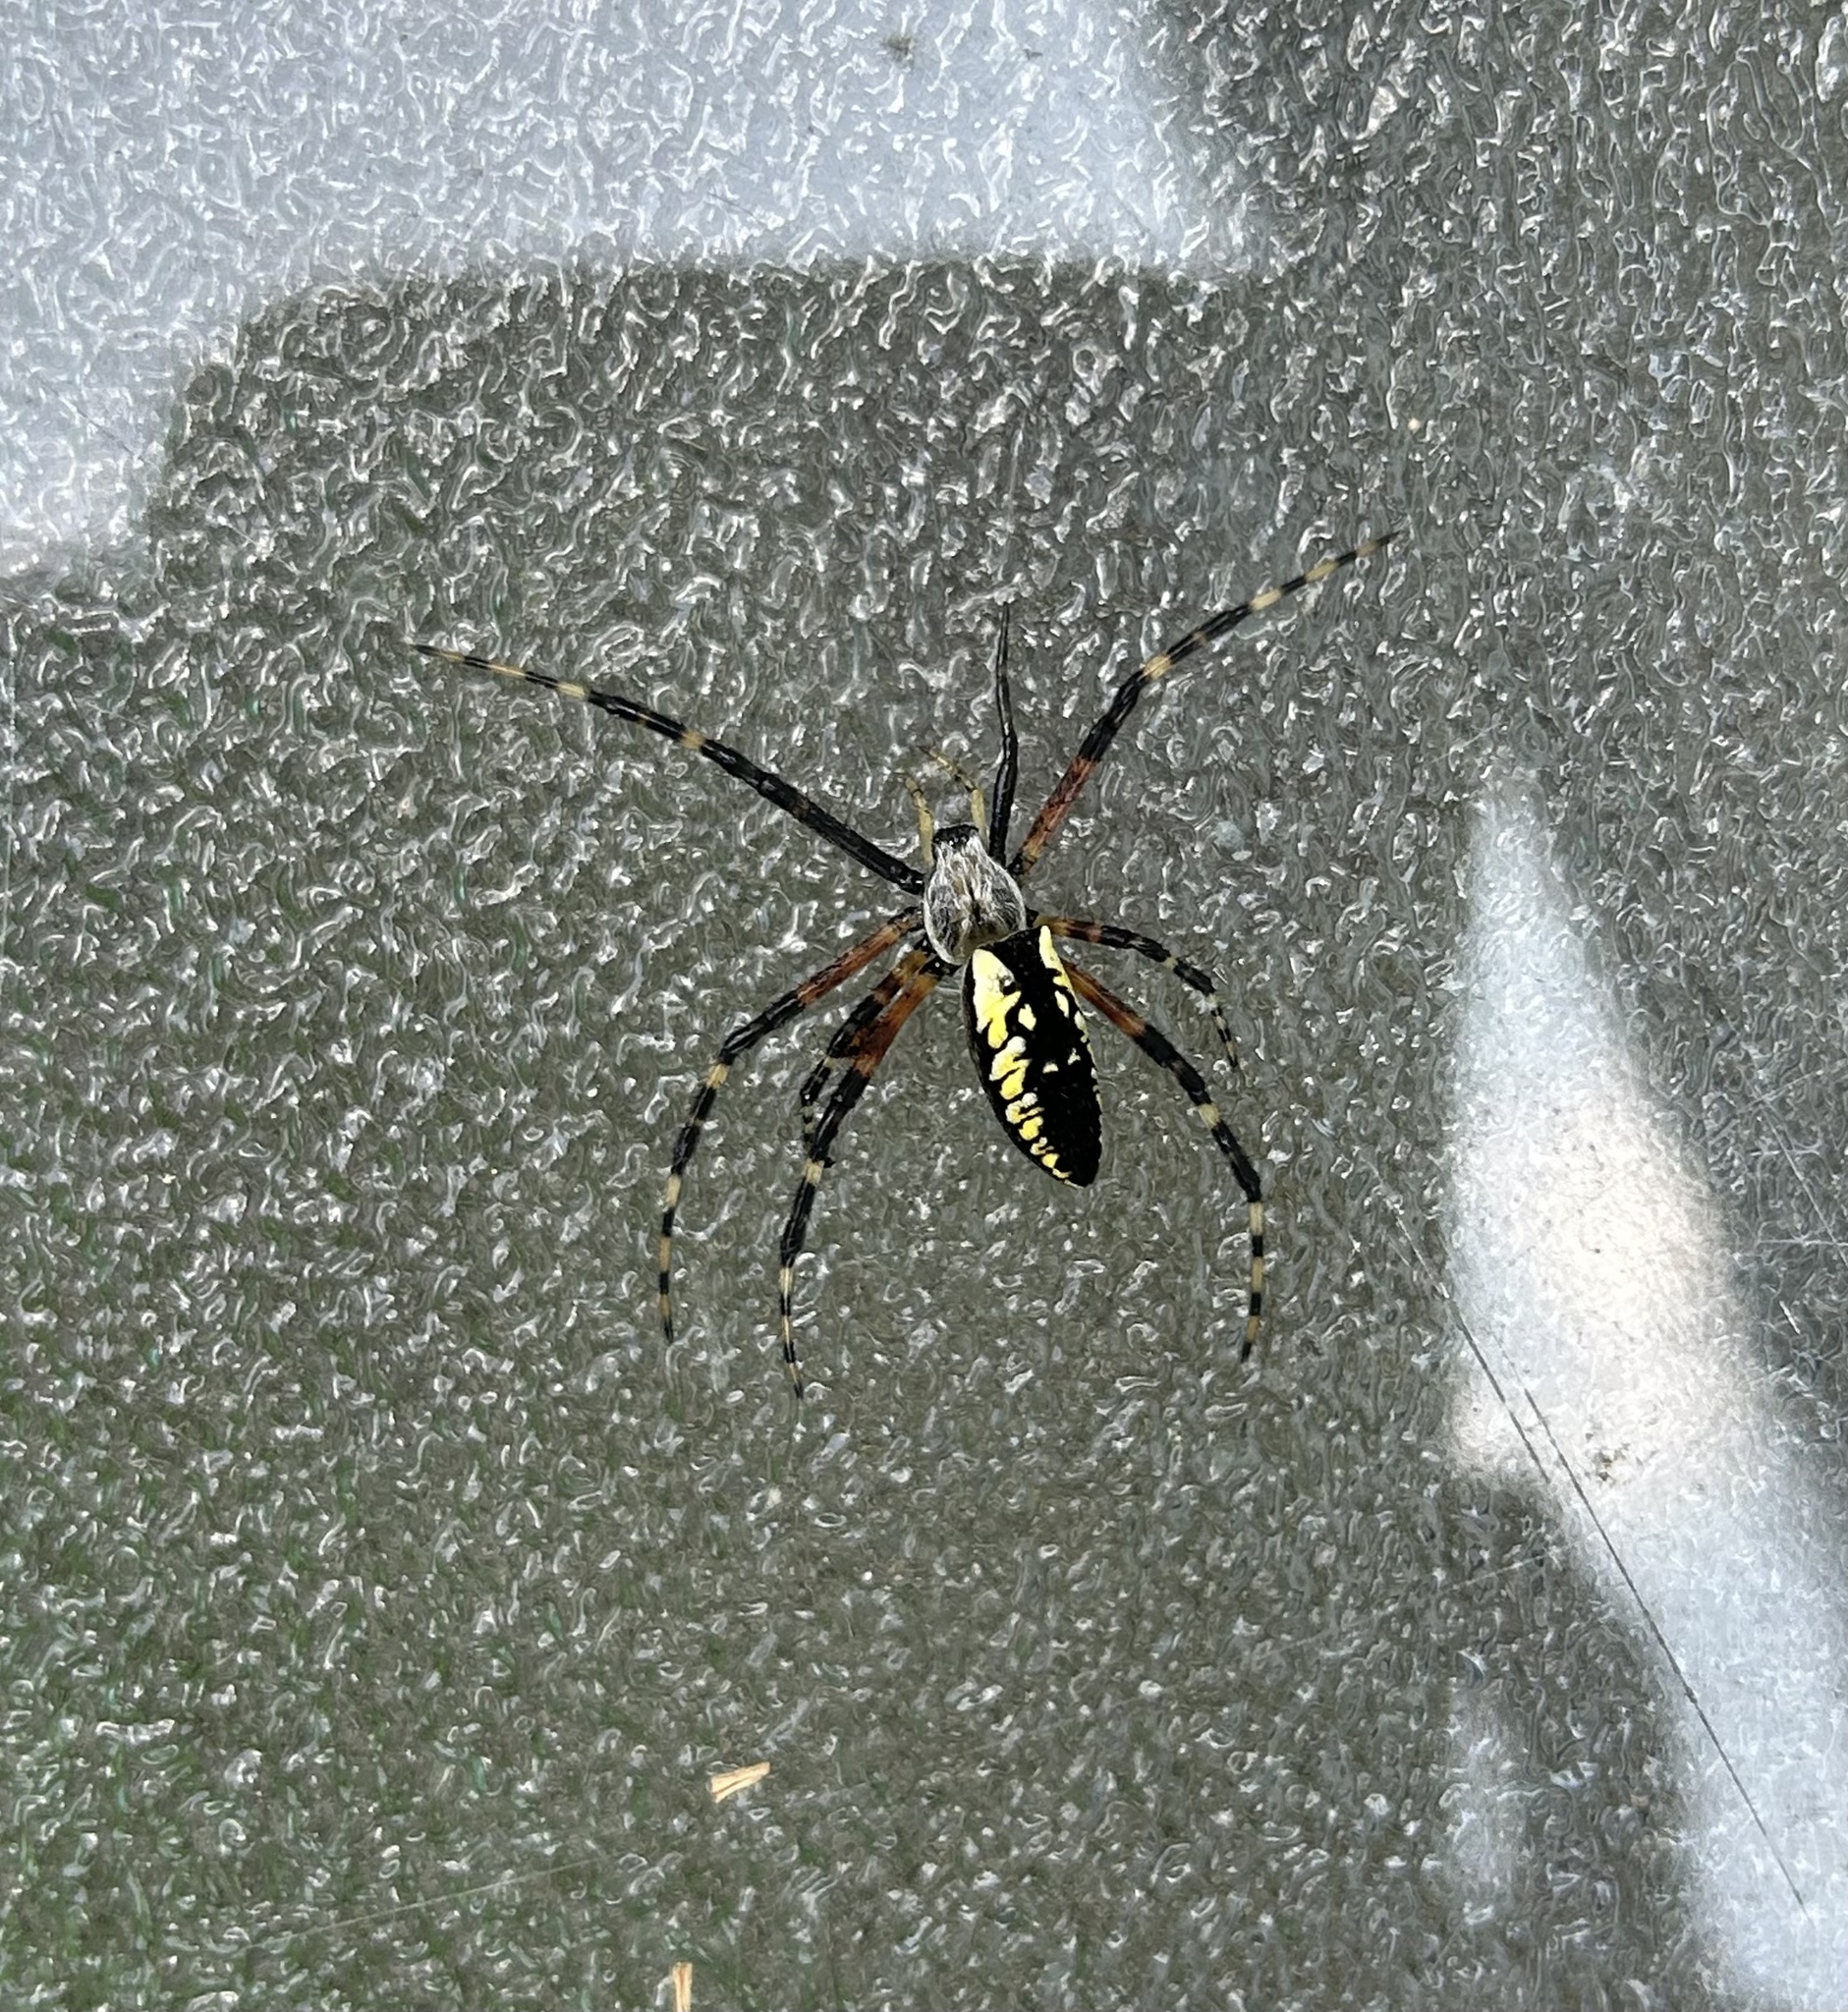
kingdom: Animalia
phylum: Arthropoda
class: Arachnida
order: Araneae
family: Araneidae
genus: Argiope
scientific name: Argiope aurantia
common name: Orb weavers
